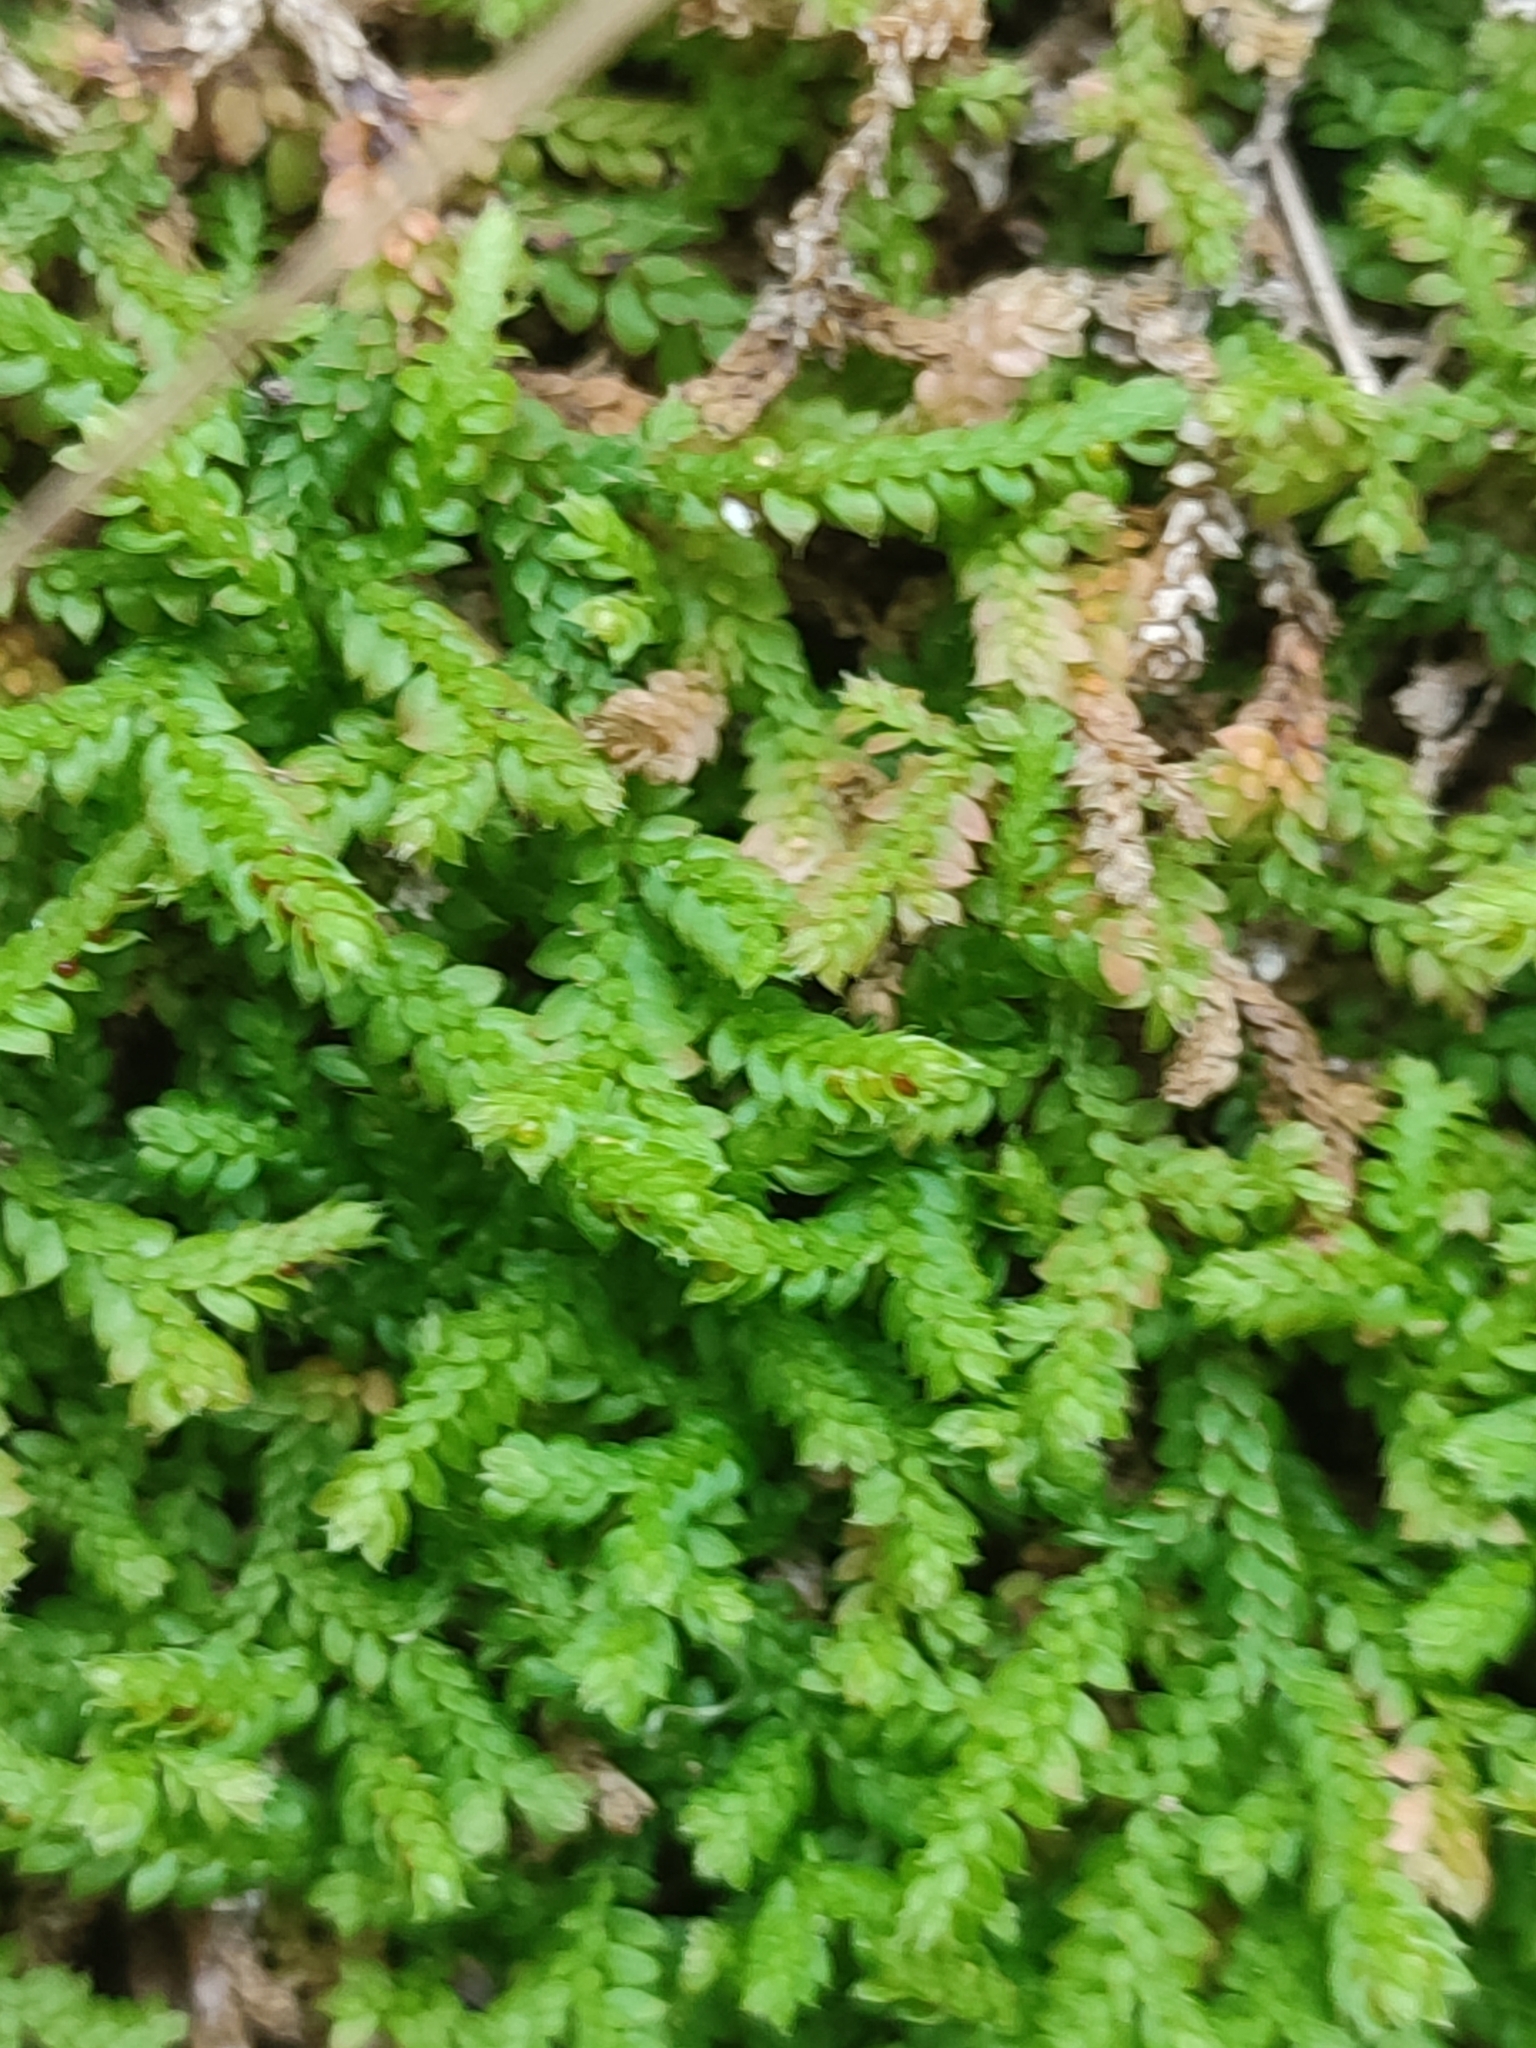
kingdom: Plantae
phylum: Tracheophyta
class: Lycopodiopsida
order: Selaginellales
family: Selaginellaceae
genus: Selaginella
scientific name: Selaginella denticulata
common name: Toothed-leaved clubmoss
